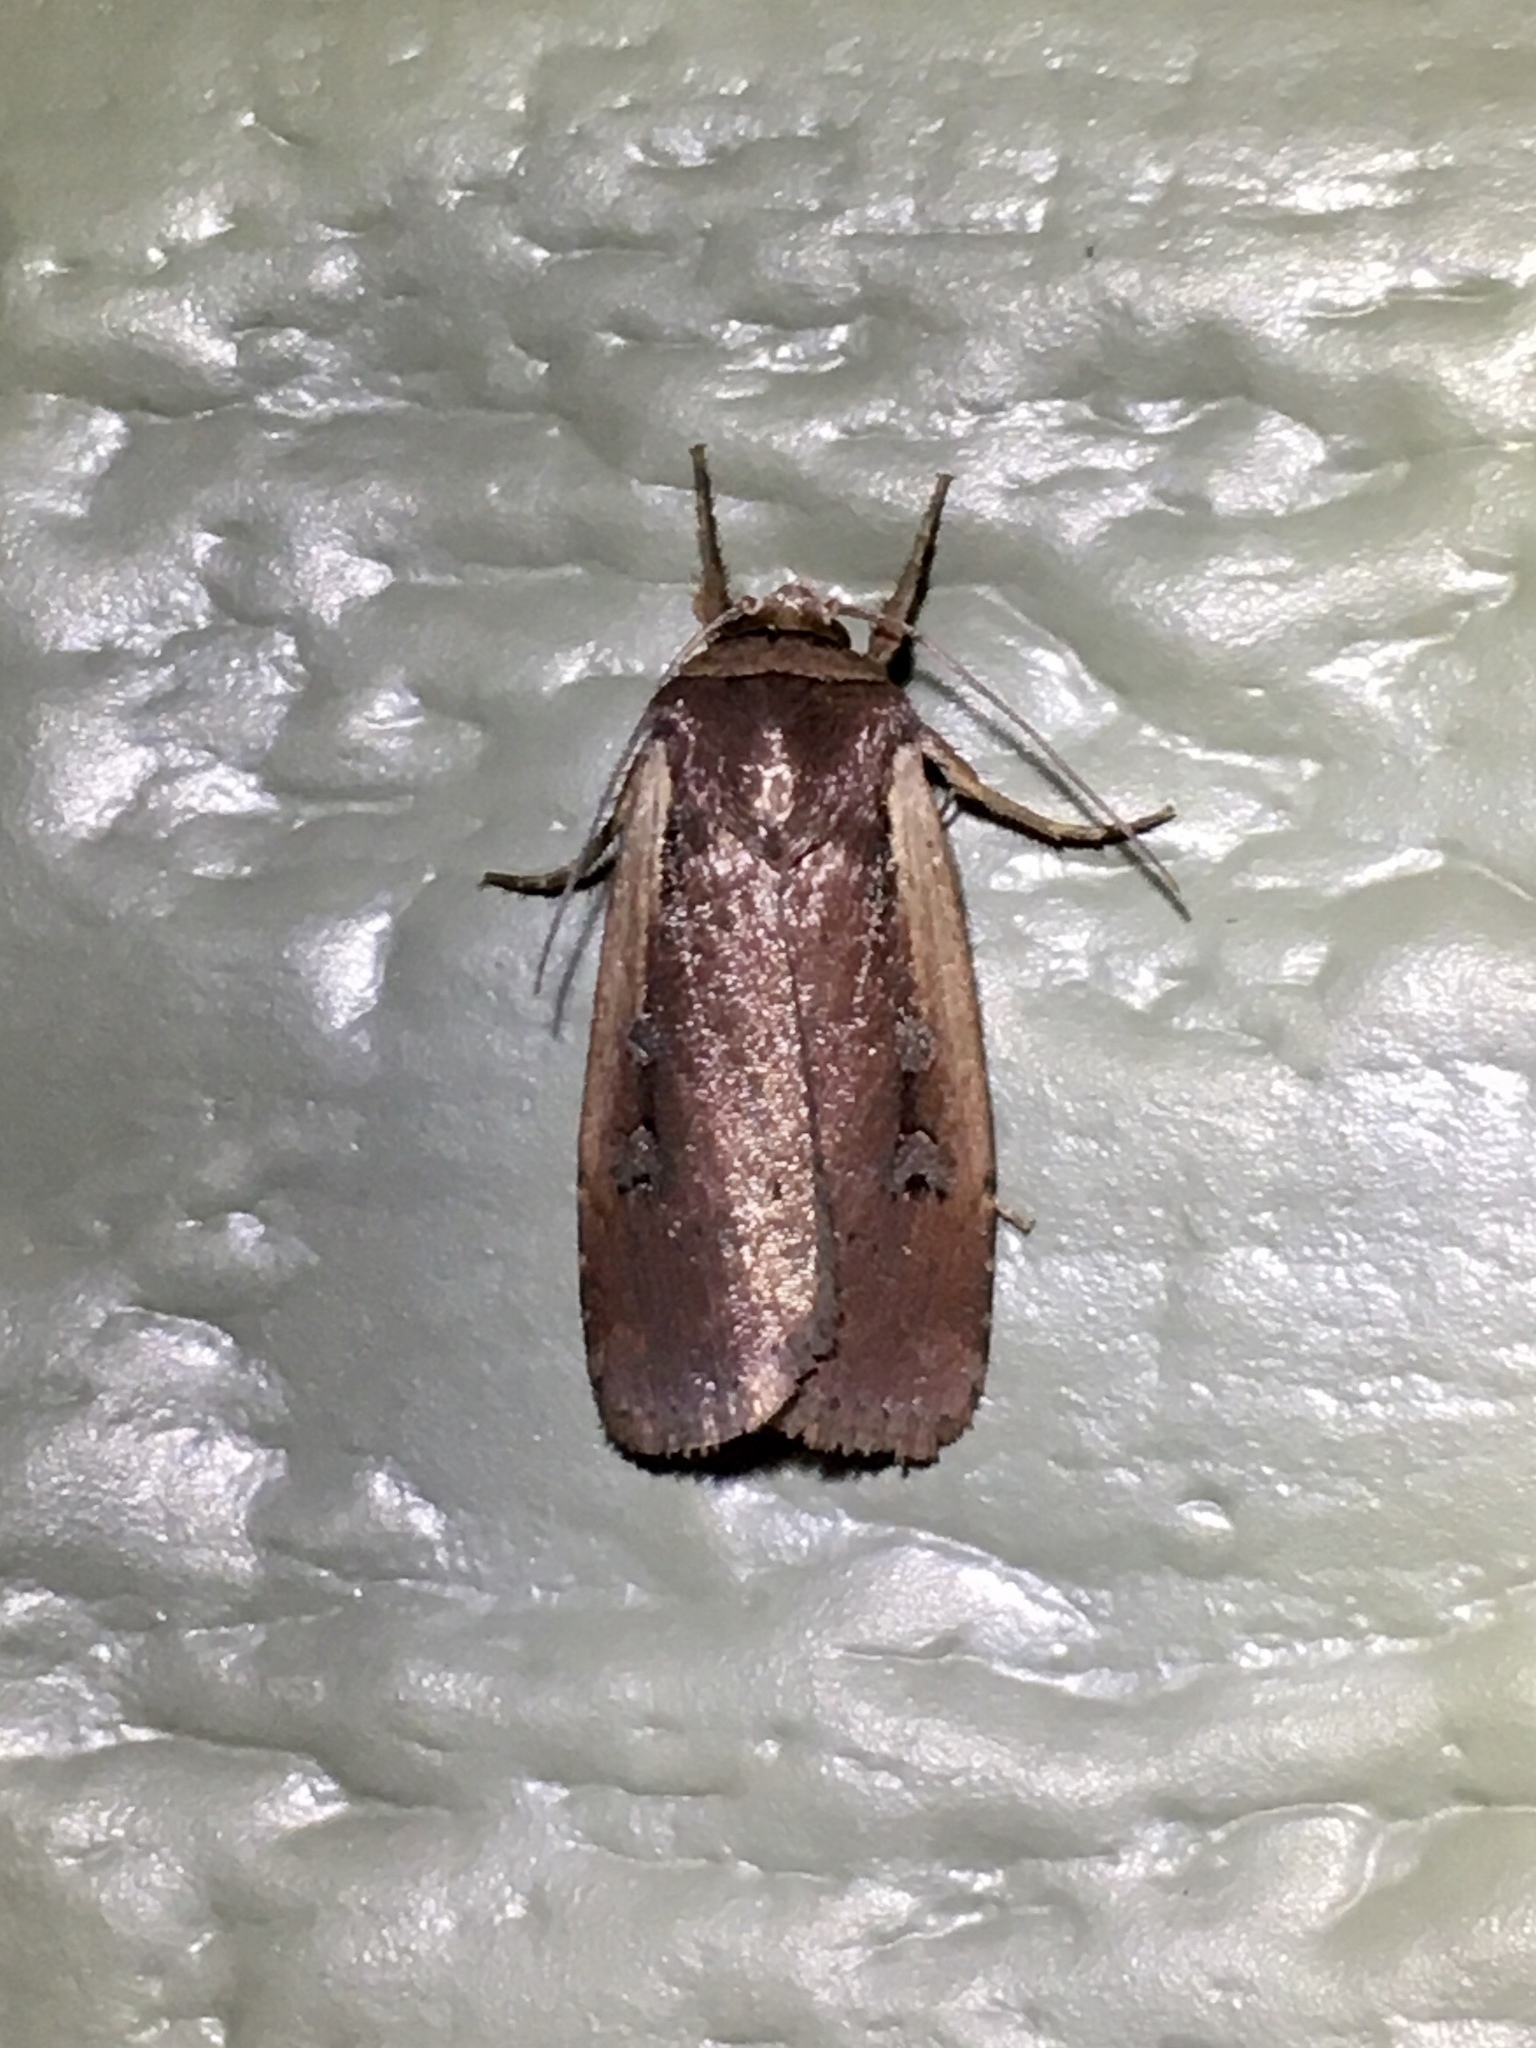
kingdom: Animalia
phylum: Arthropoda
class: Insecta
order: Lepidoptera
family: Noctuidae
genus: Ochropleura
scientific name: Ochropleura implecta
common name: Flame-shouldered dart
